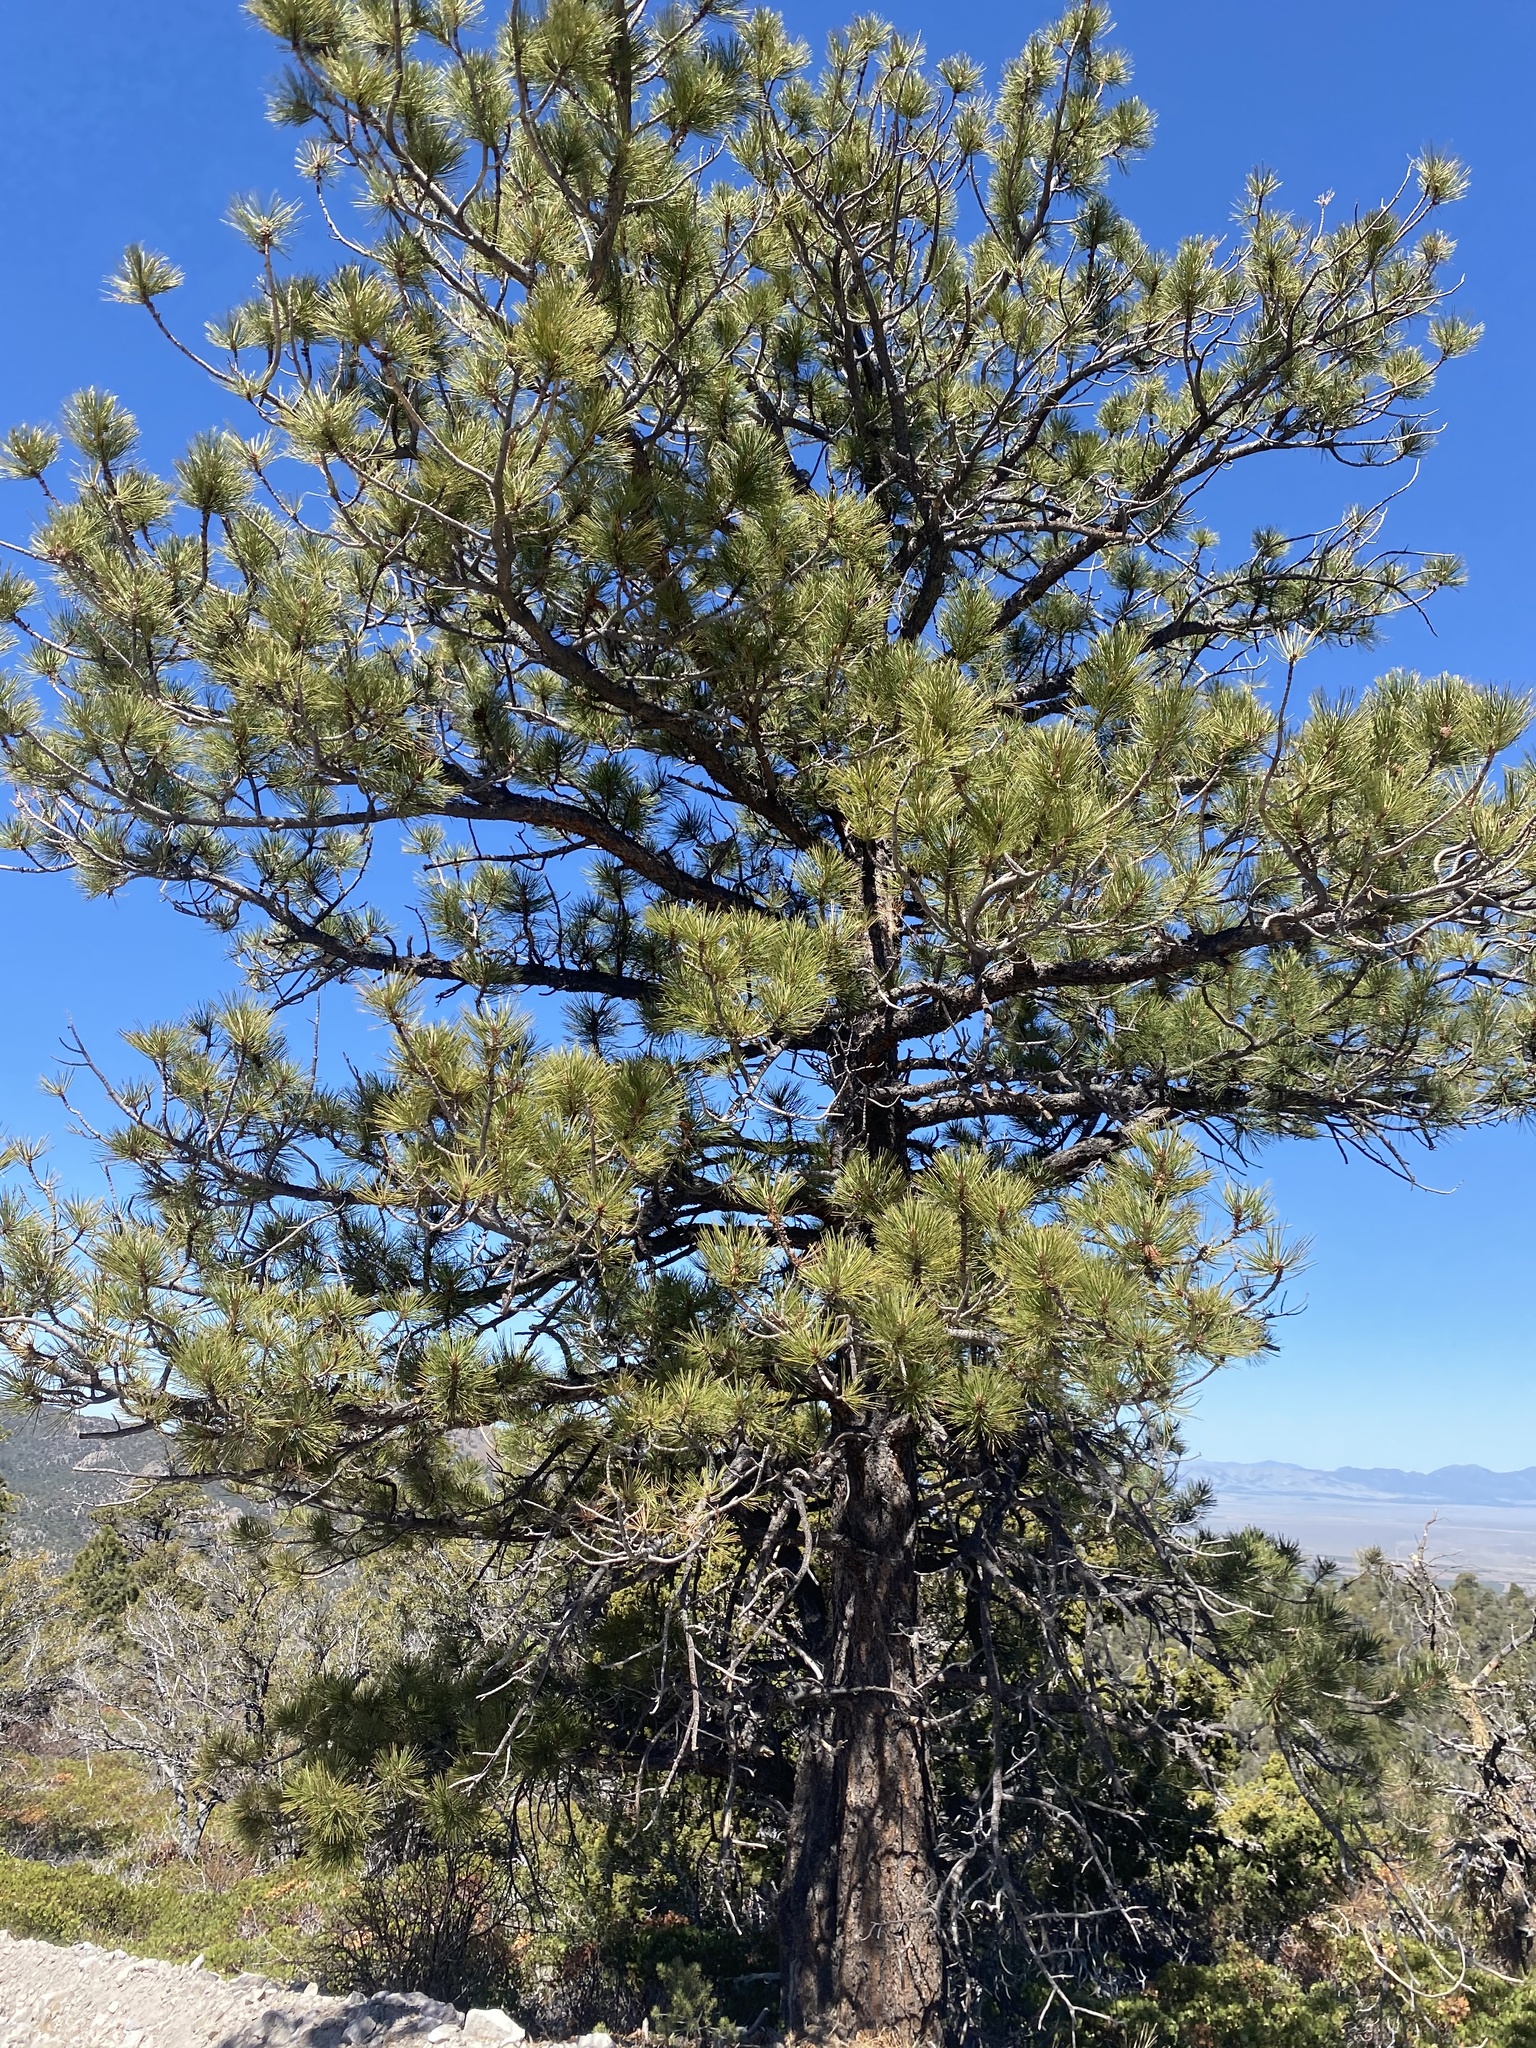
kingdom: Plantae
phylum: Tracheophyta
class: Pinopsida
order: Pinales
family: Pinaceae
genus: Pinus
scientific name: Pinus ponderosa
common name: Western yellow-pine
